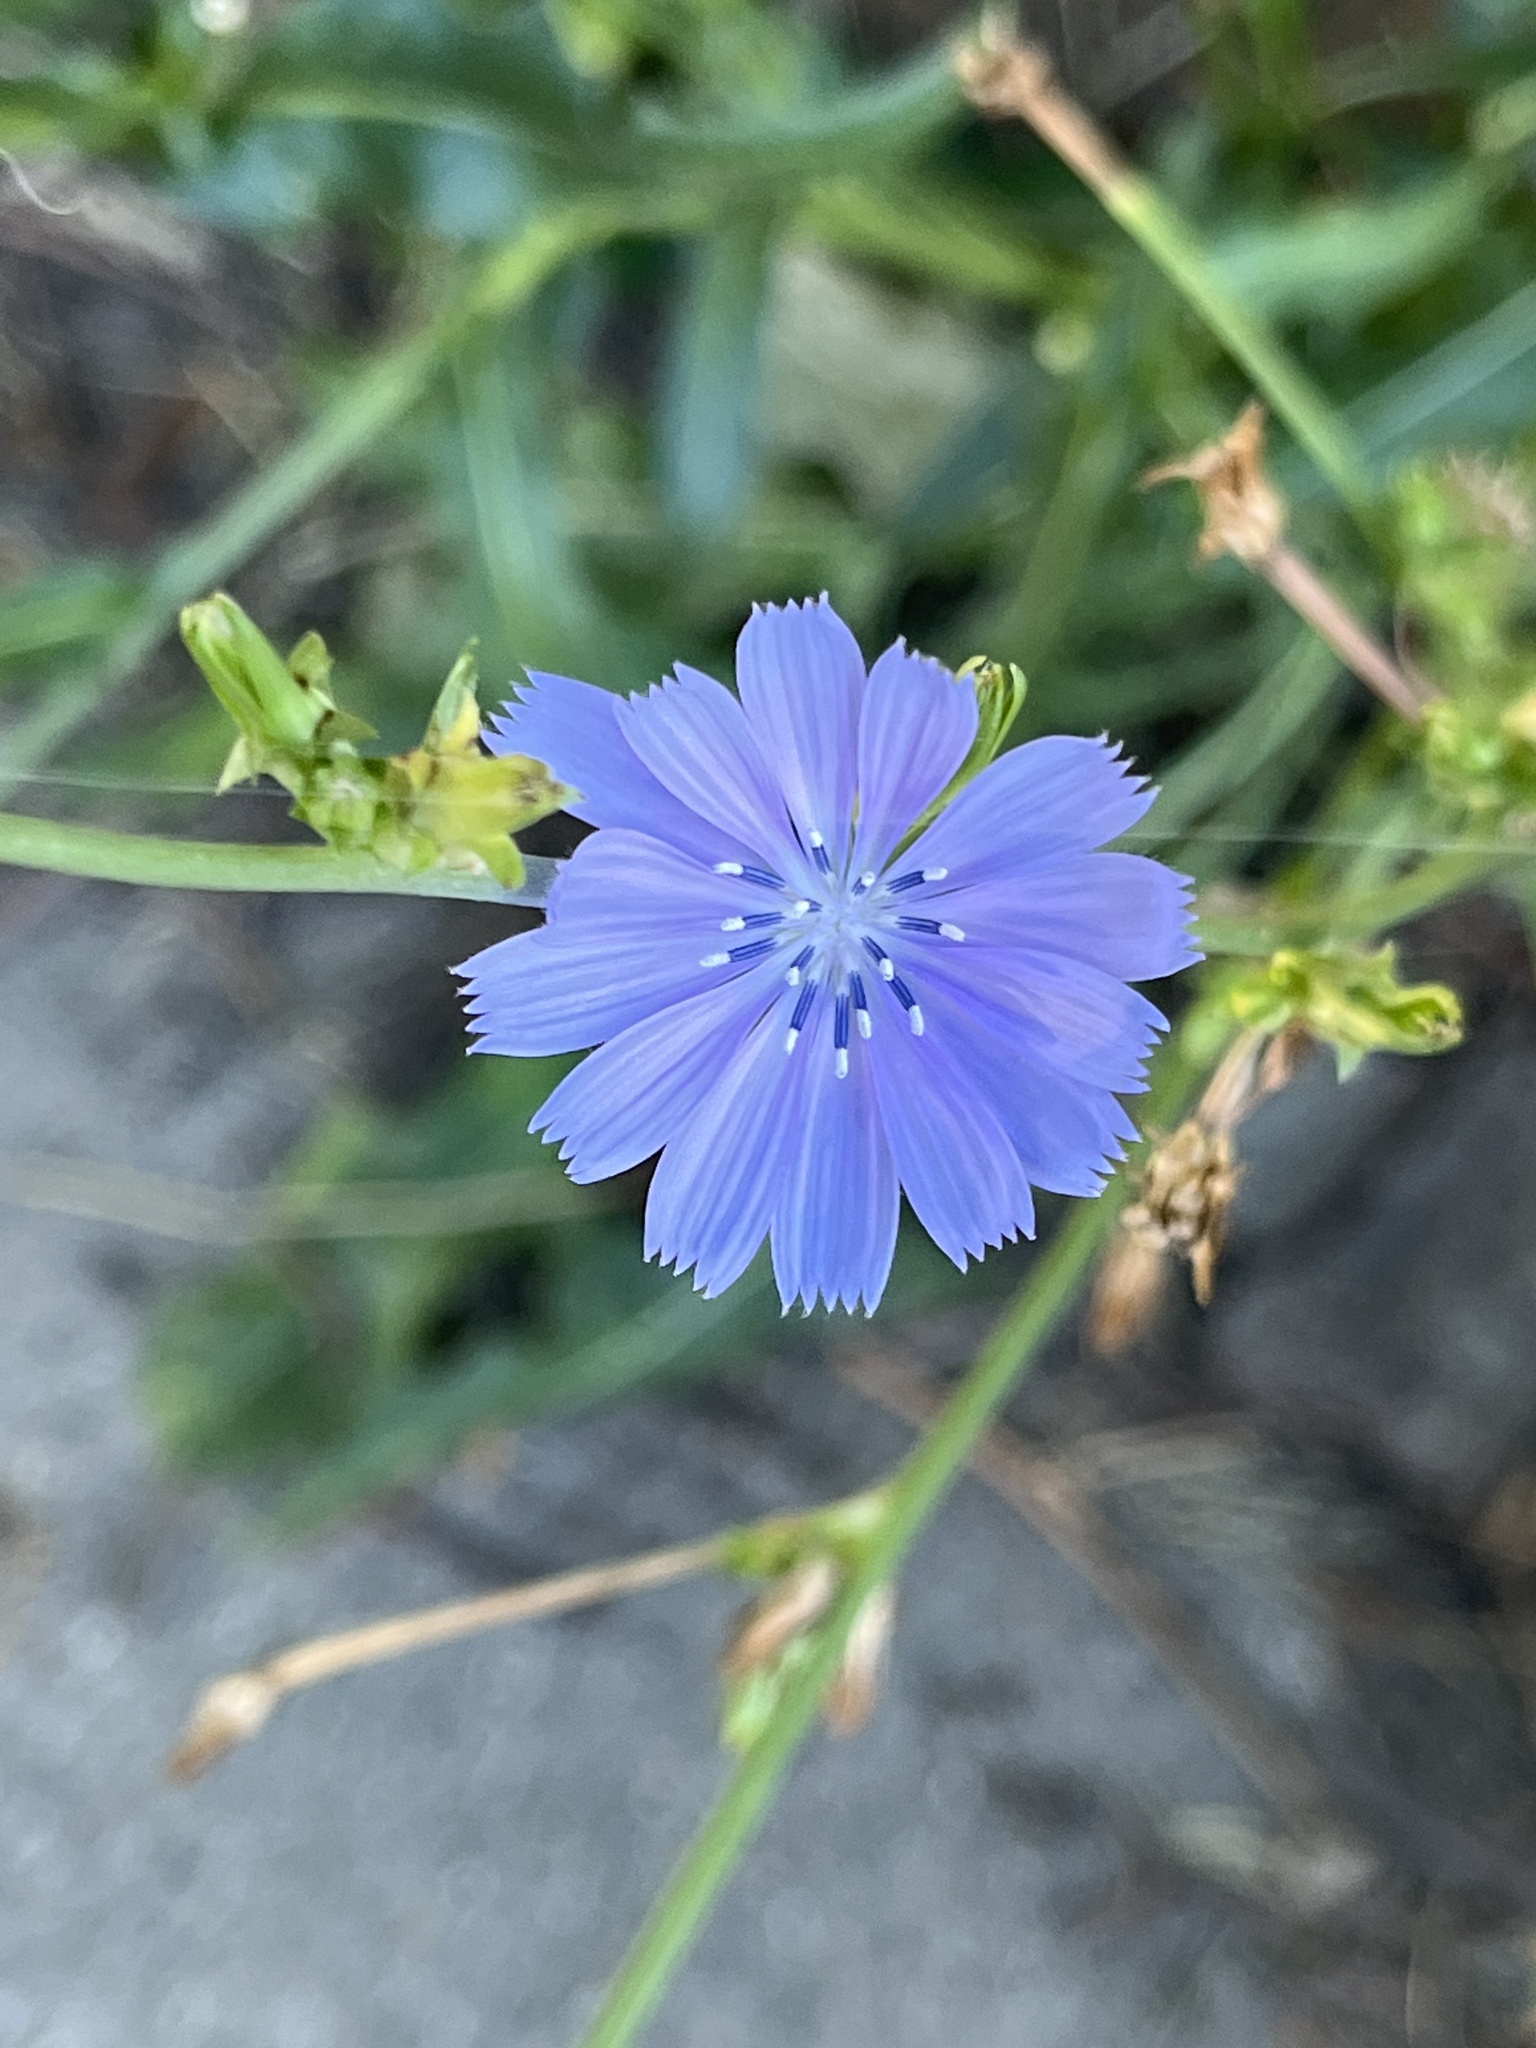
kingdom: Plantae
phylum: Tracheophyta
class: Magnoliopsida
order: Asterales
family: Asteraceae
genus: Cichorium
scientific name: Cichorium intybus
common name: Chicory
